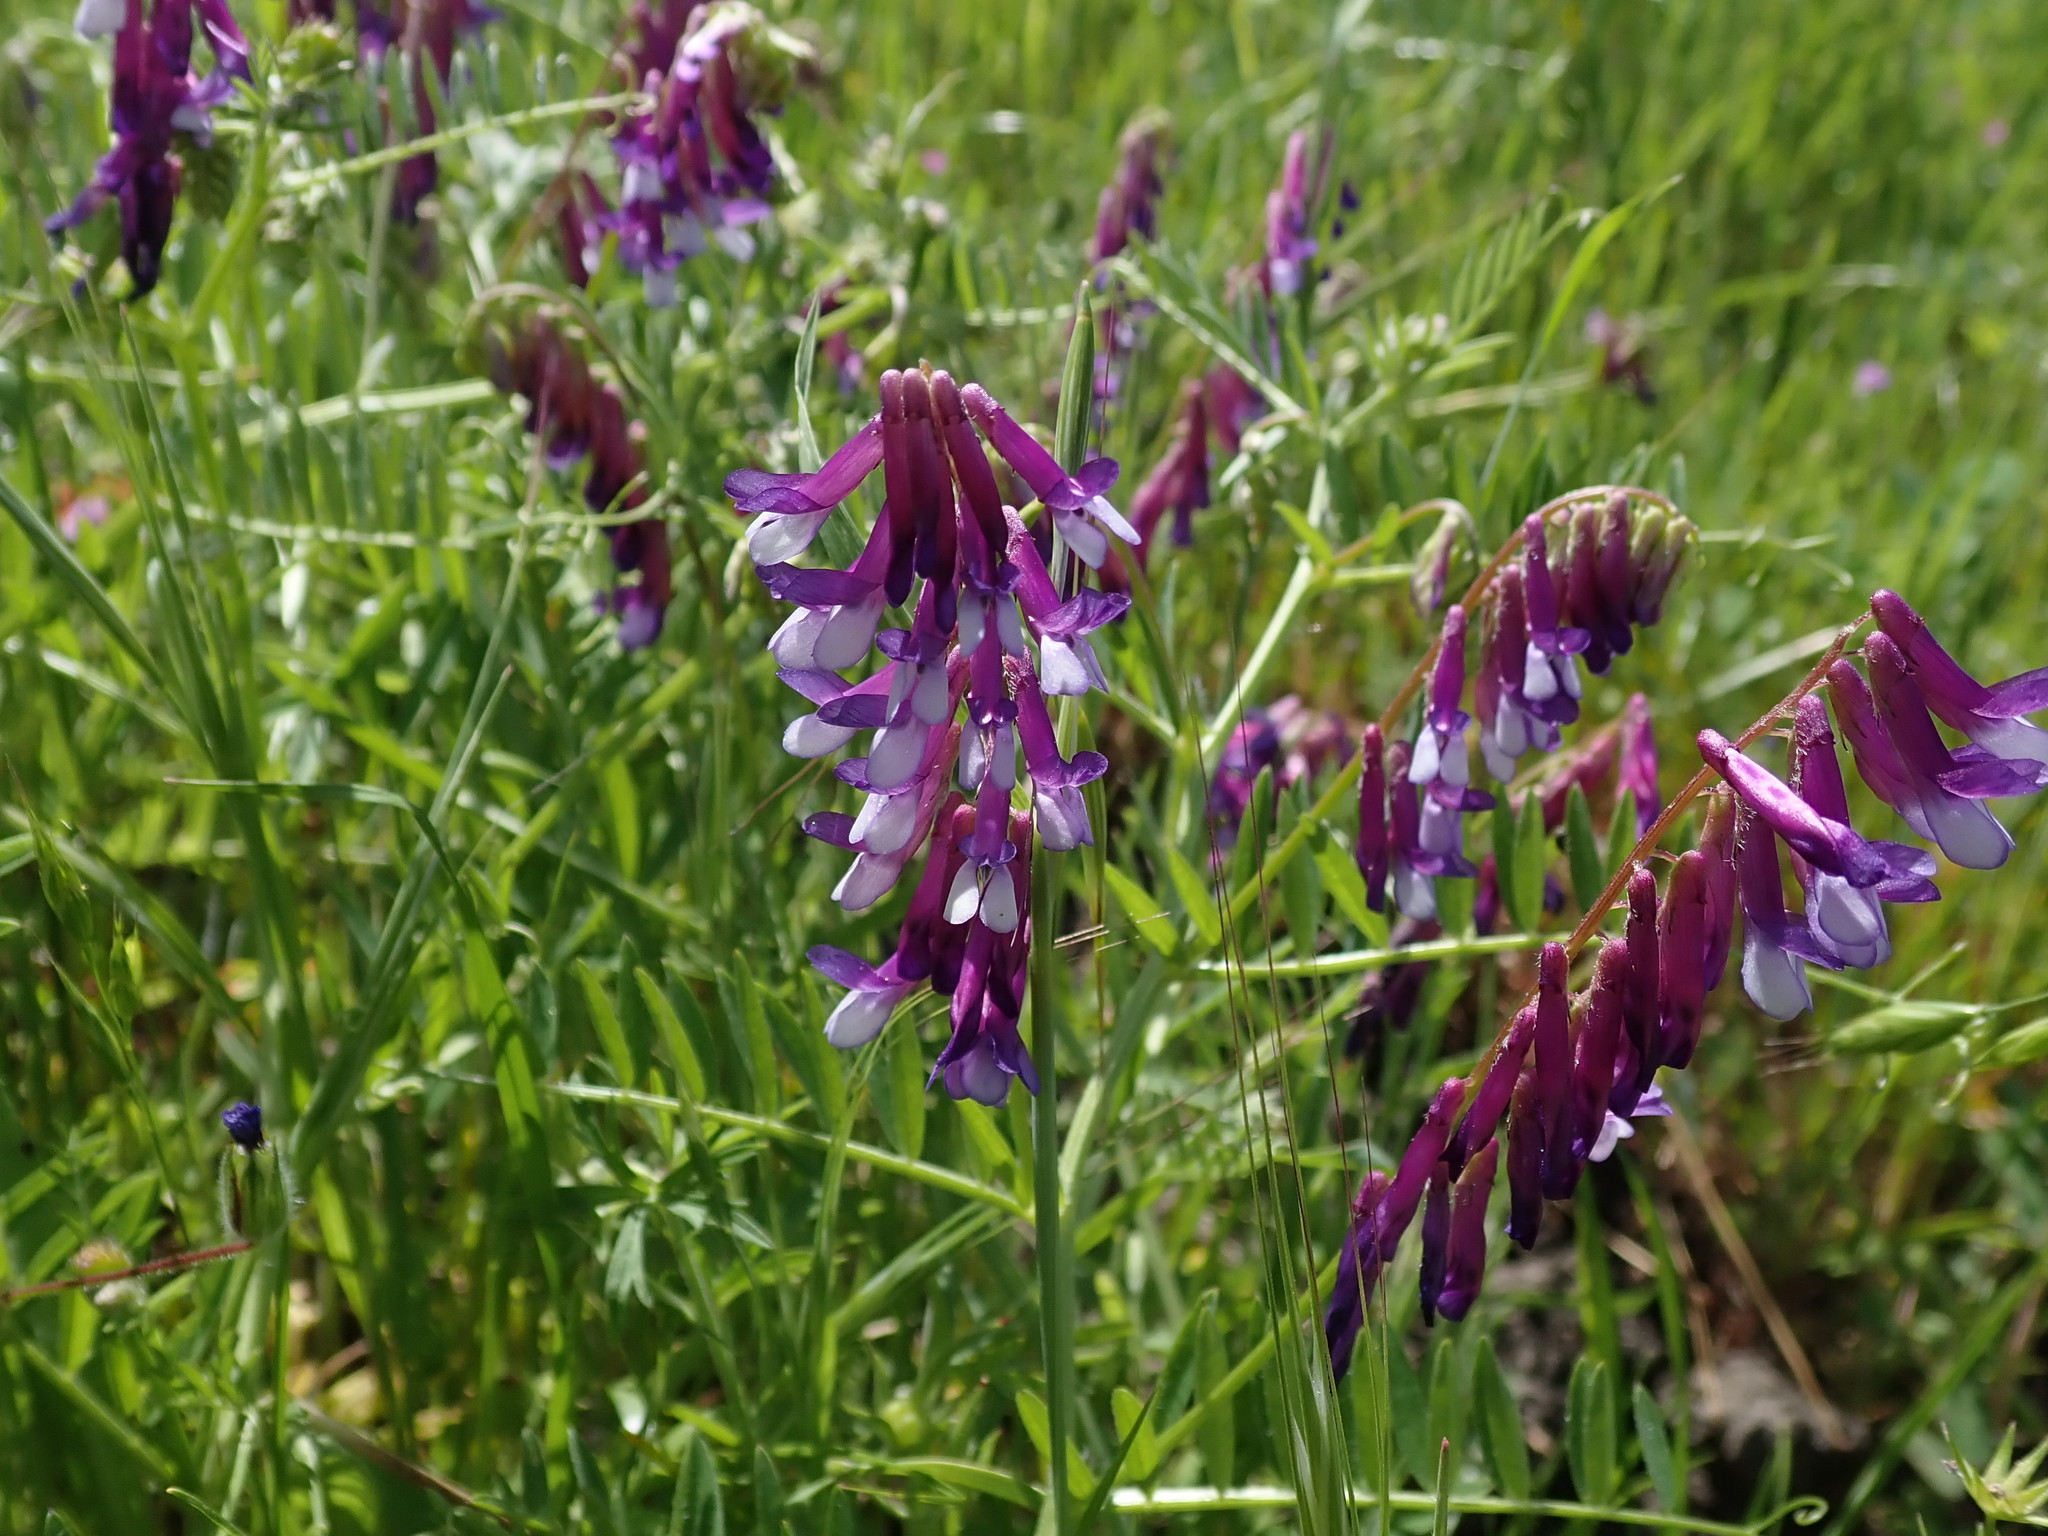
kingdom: Plantae
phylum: Tracheophyta
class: Magnoliopsida
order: Fabales
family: Fabaceae
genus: Vicia
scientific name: Vicia villosa
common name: Fodder vetch
